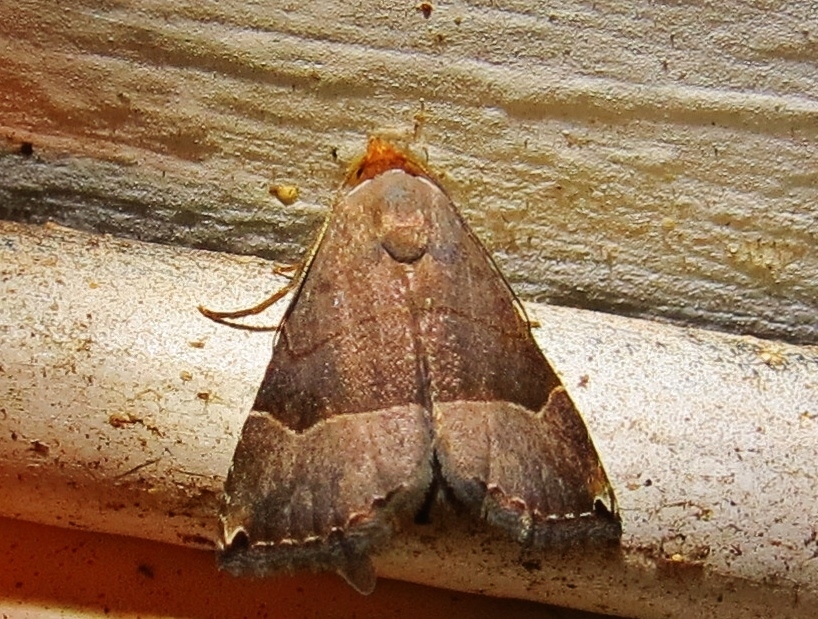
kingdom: Animalia
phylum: Arthropoda
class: Insecta
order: Lepidoptera
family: Noctuidae
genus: Abacena
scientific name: Abacena mundula
